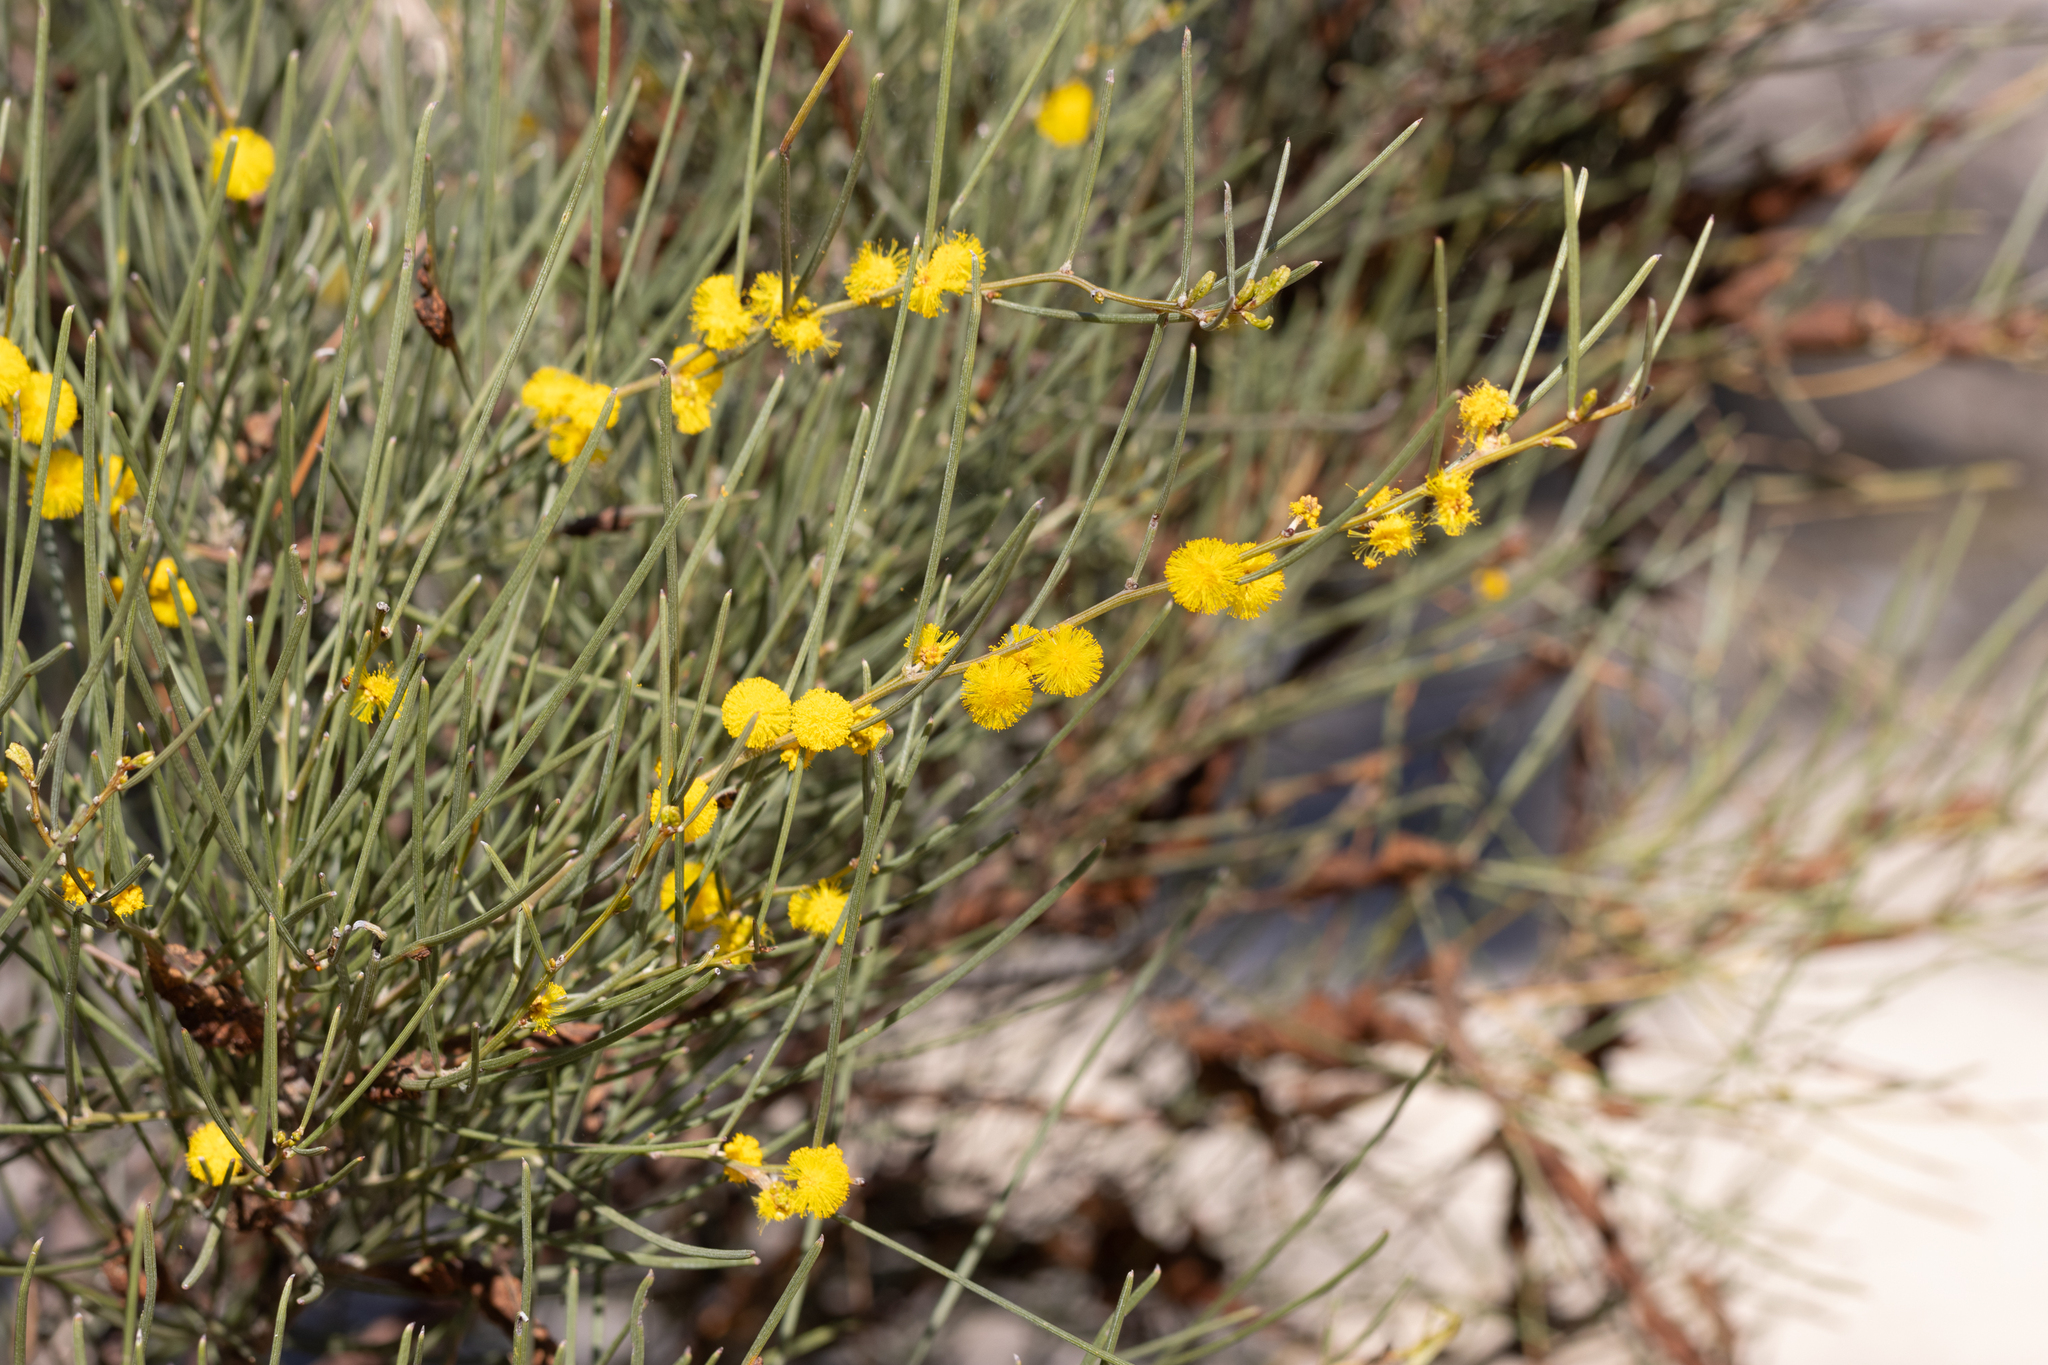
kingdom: Plantae
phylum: Tracheophyta
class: Magnoliopsida
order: Fabales
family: Fabaceae
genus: Acacia
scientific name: Acacia rigens
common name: Nealie
